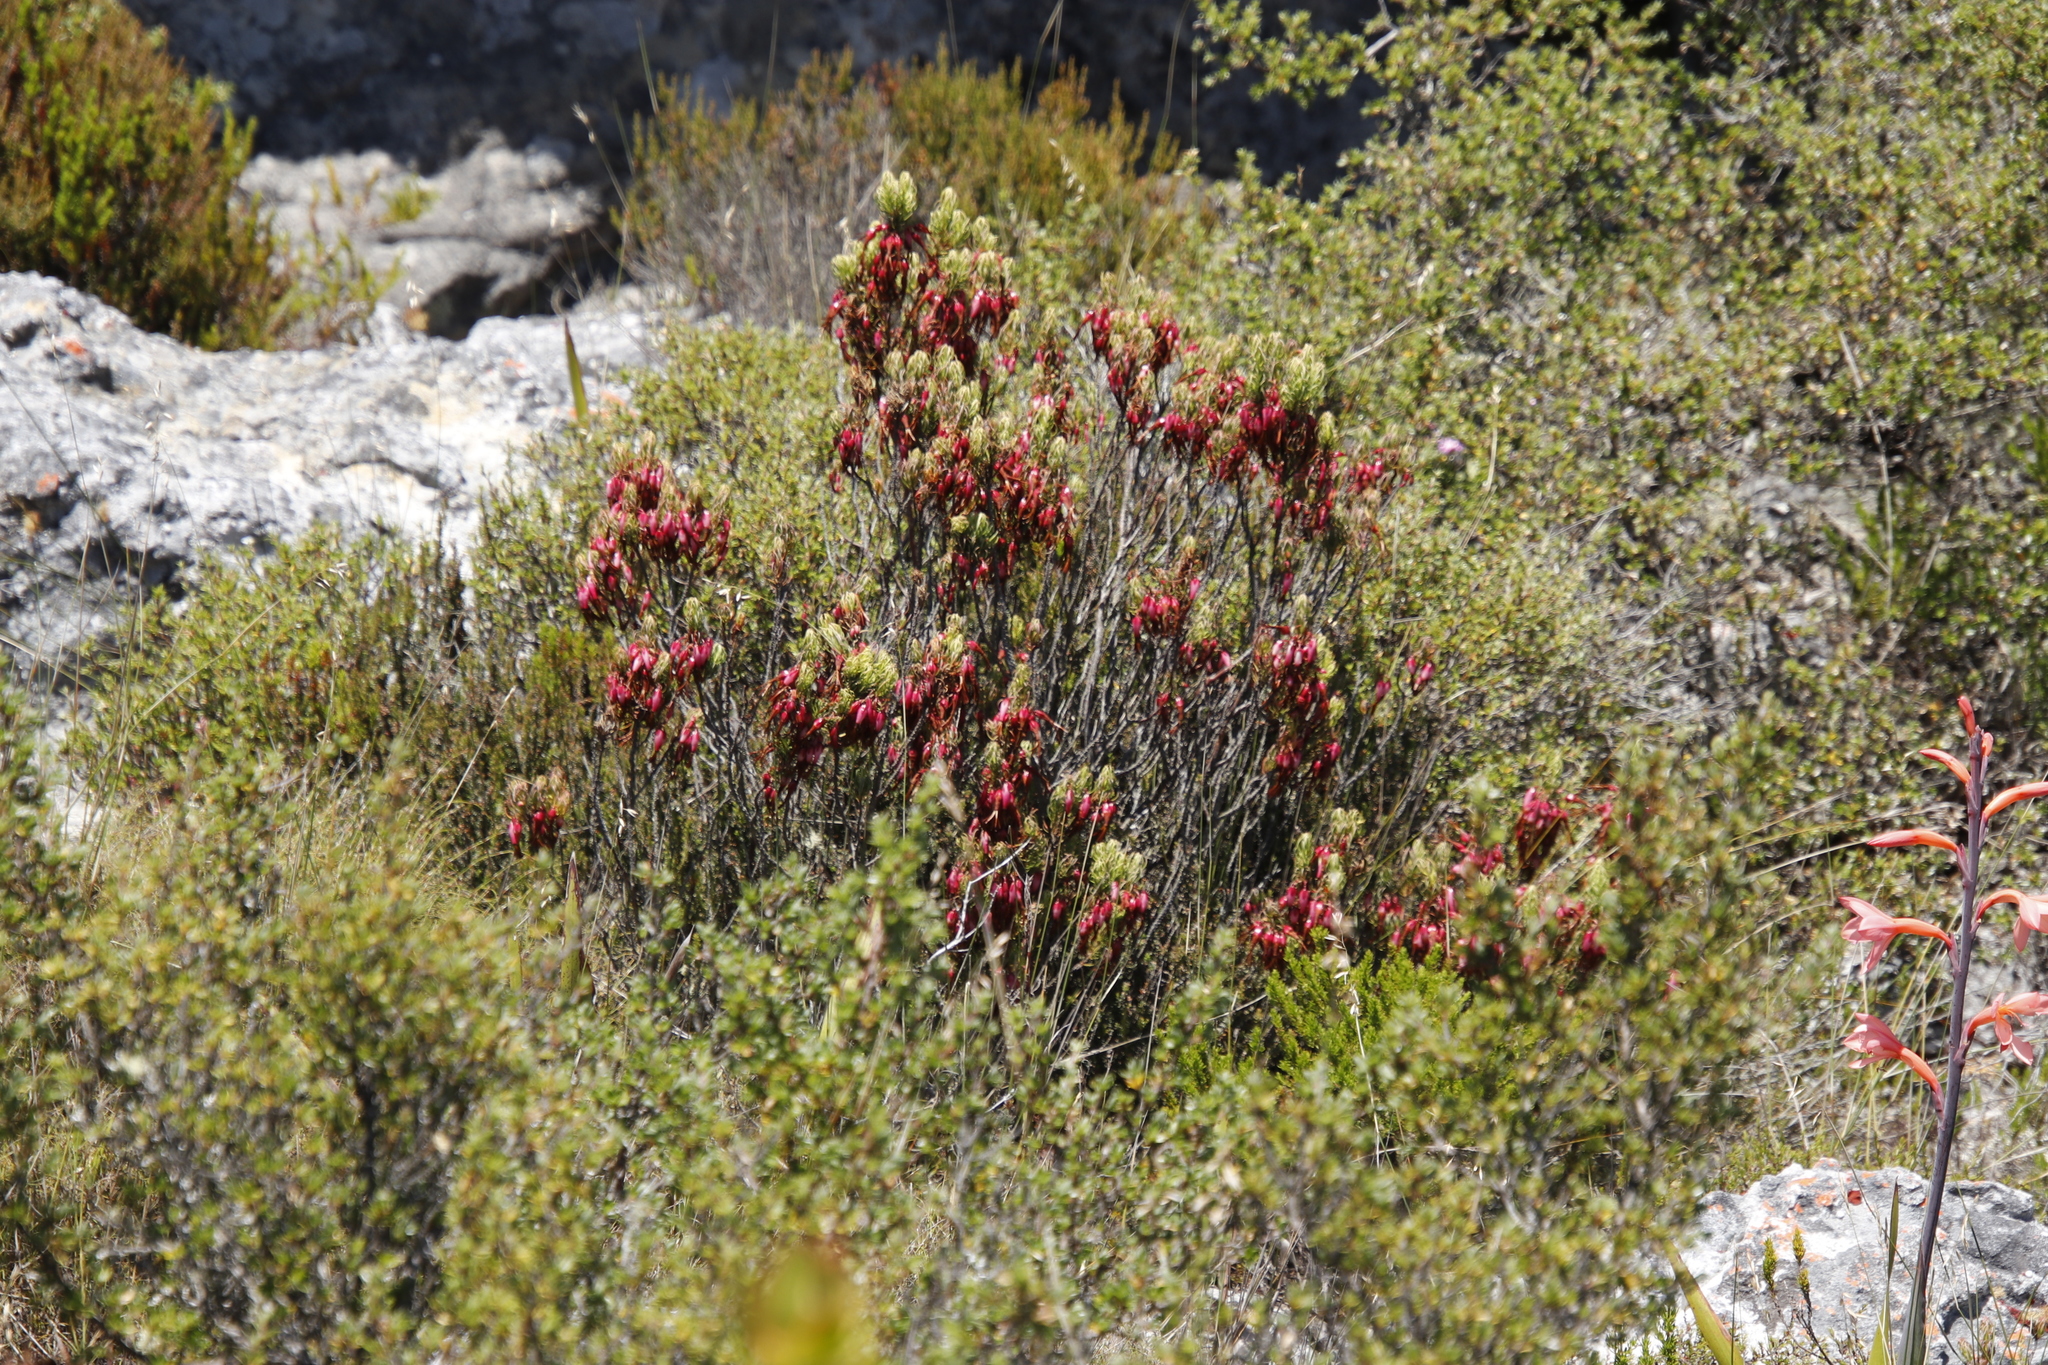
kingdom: Plantae
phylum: Tracheophyta
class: Magnoliopsida
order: Ericales
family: Ericaceae
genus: Erica
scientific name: Erica plukenetii
